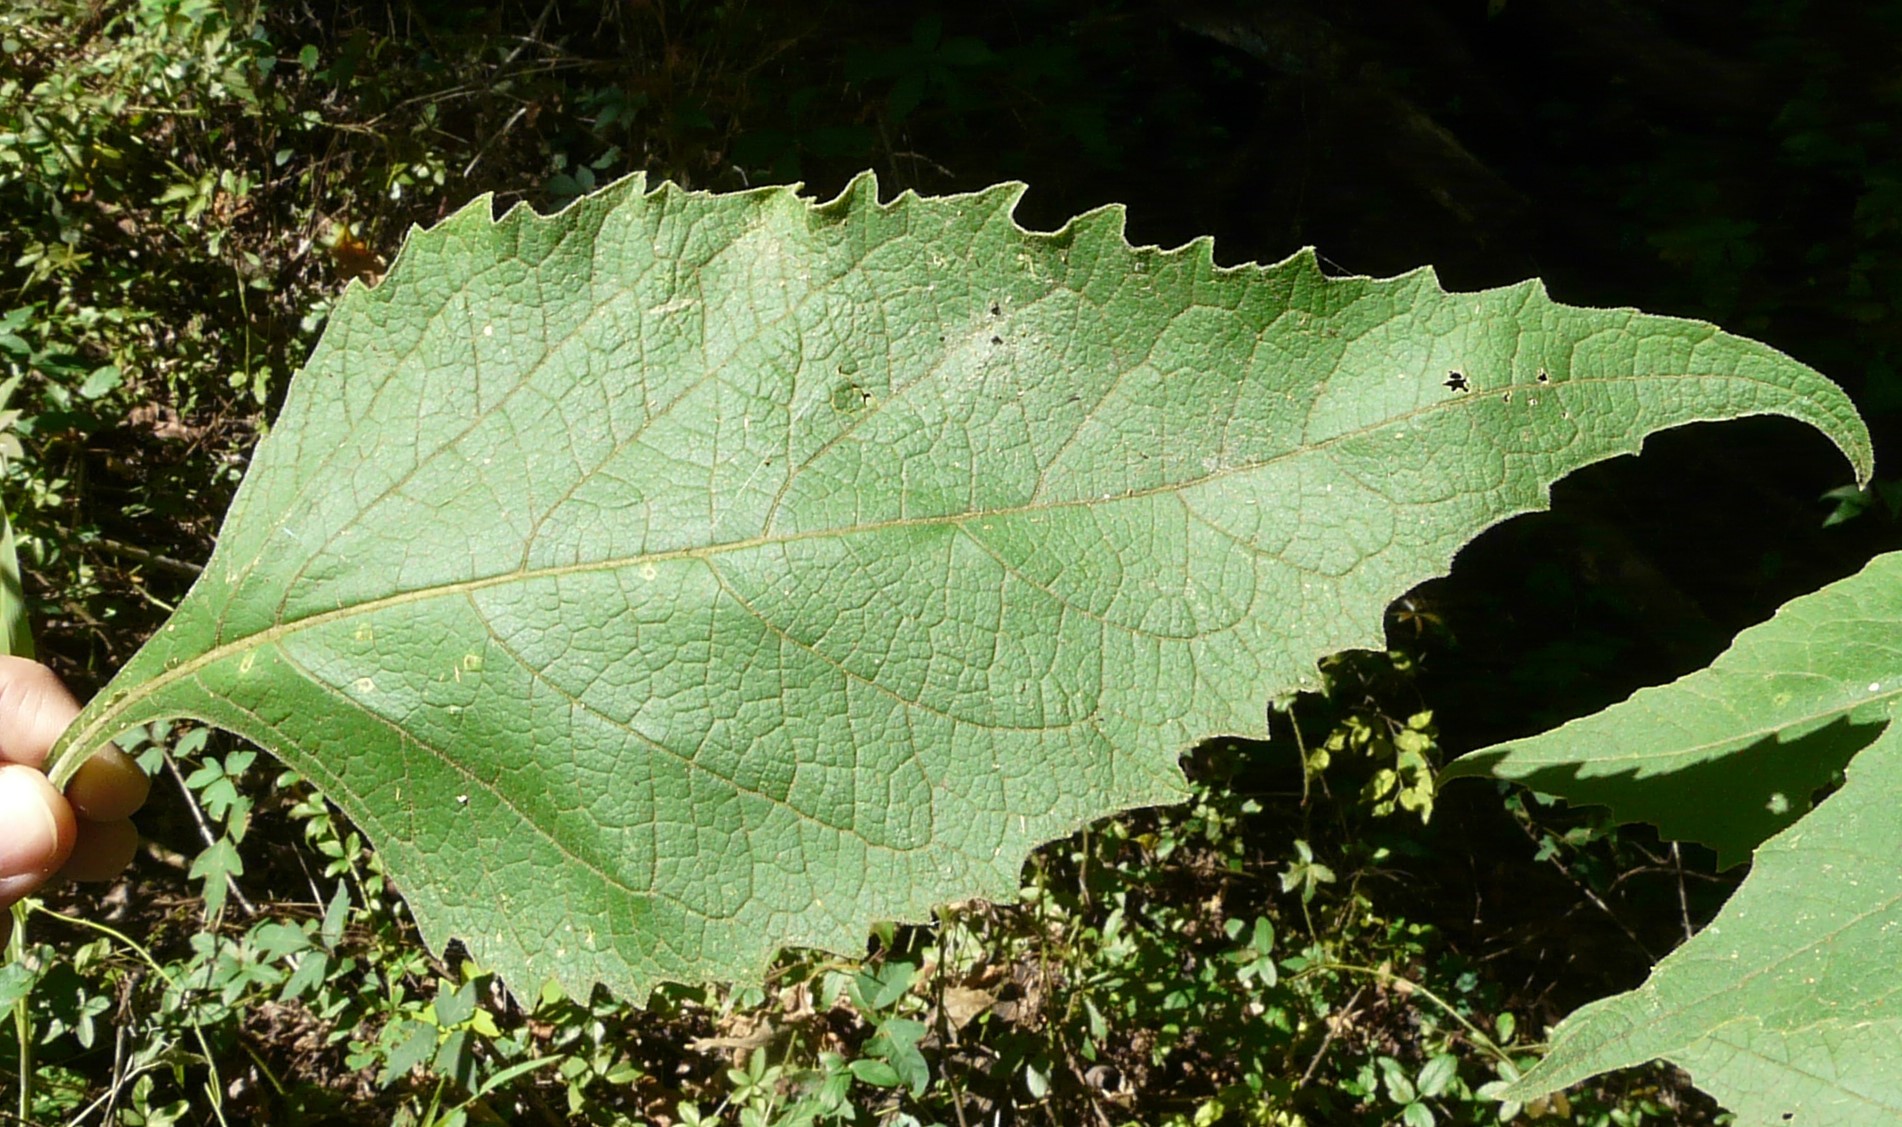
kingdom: Plantae
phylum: Tracheophyta
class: Magnoliopsida
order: Asterales
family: Asteraceae
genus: Verbesina
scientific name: Verbesina virginica
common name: Frostweed
